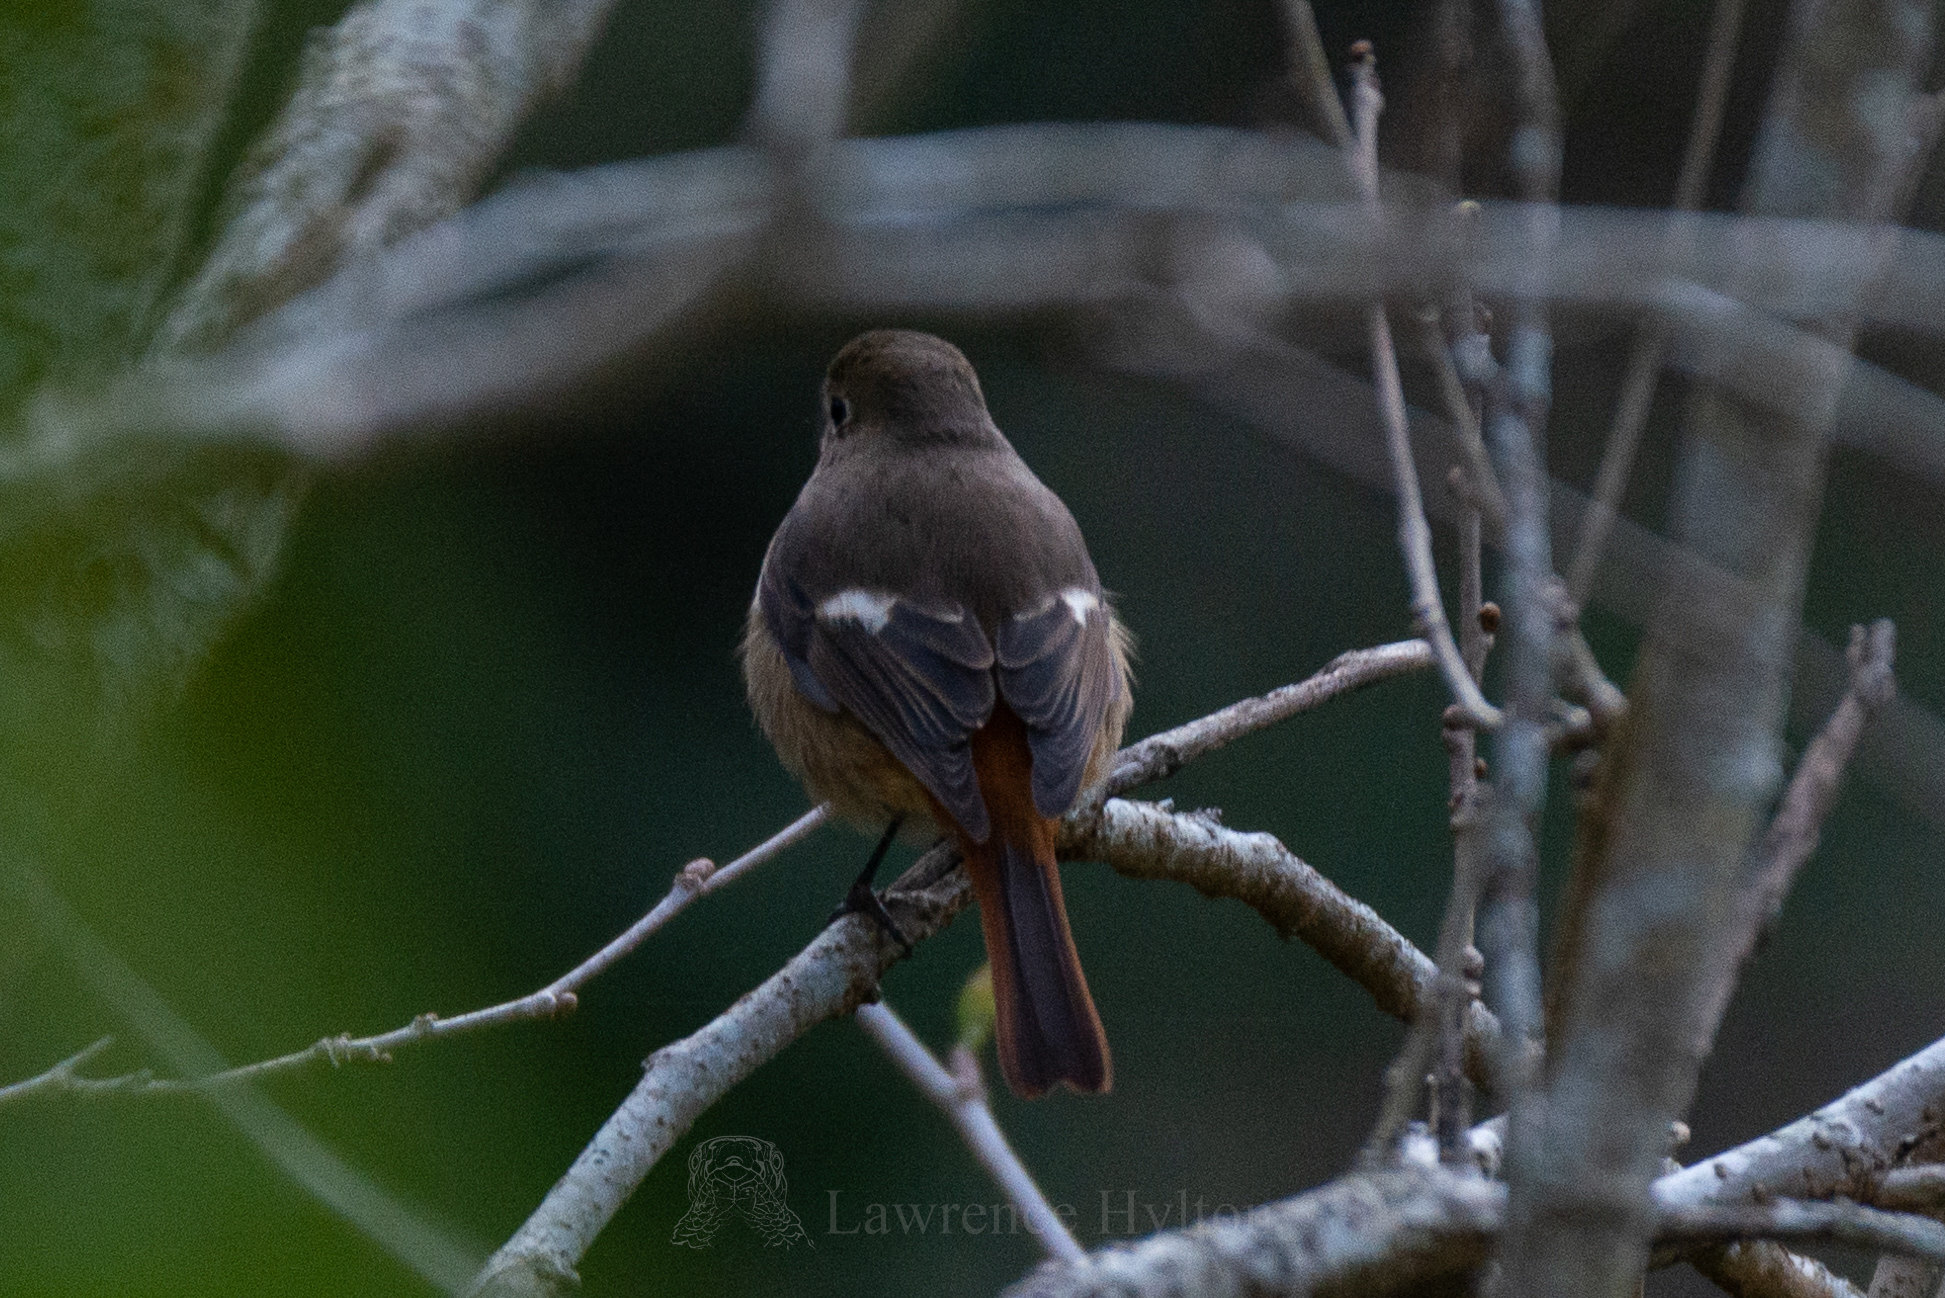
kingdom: Animalia
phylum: Chordata
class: Aves
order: Passeriformes
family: Muscicapidae
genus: Phoenicurus
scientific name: Phoenicurus auroreus
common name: Daurian redstart
